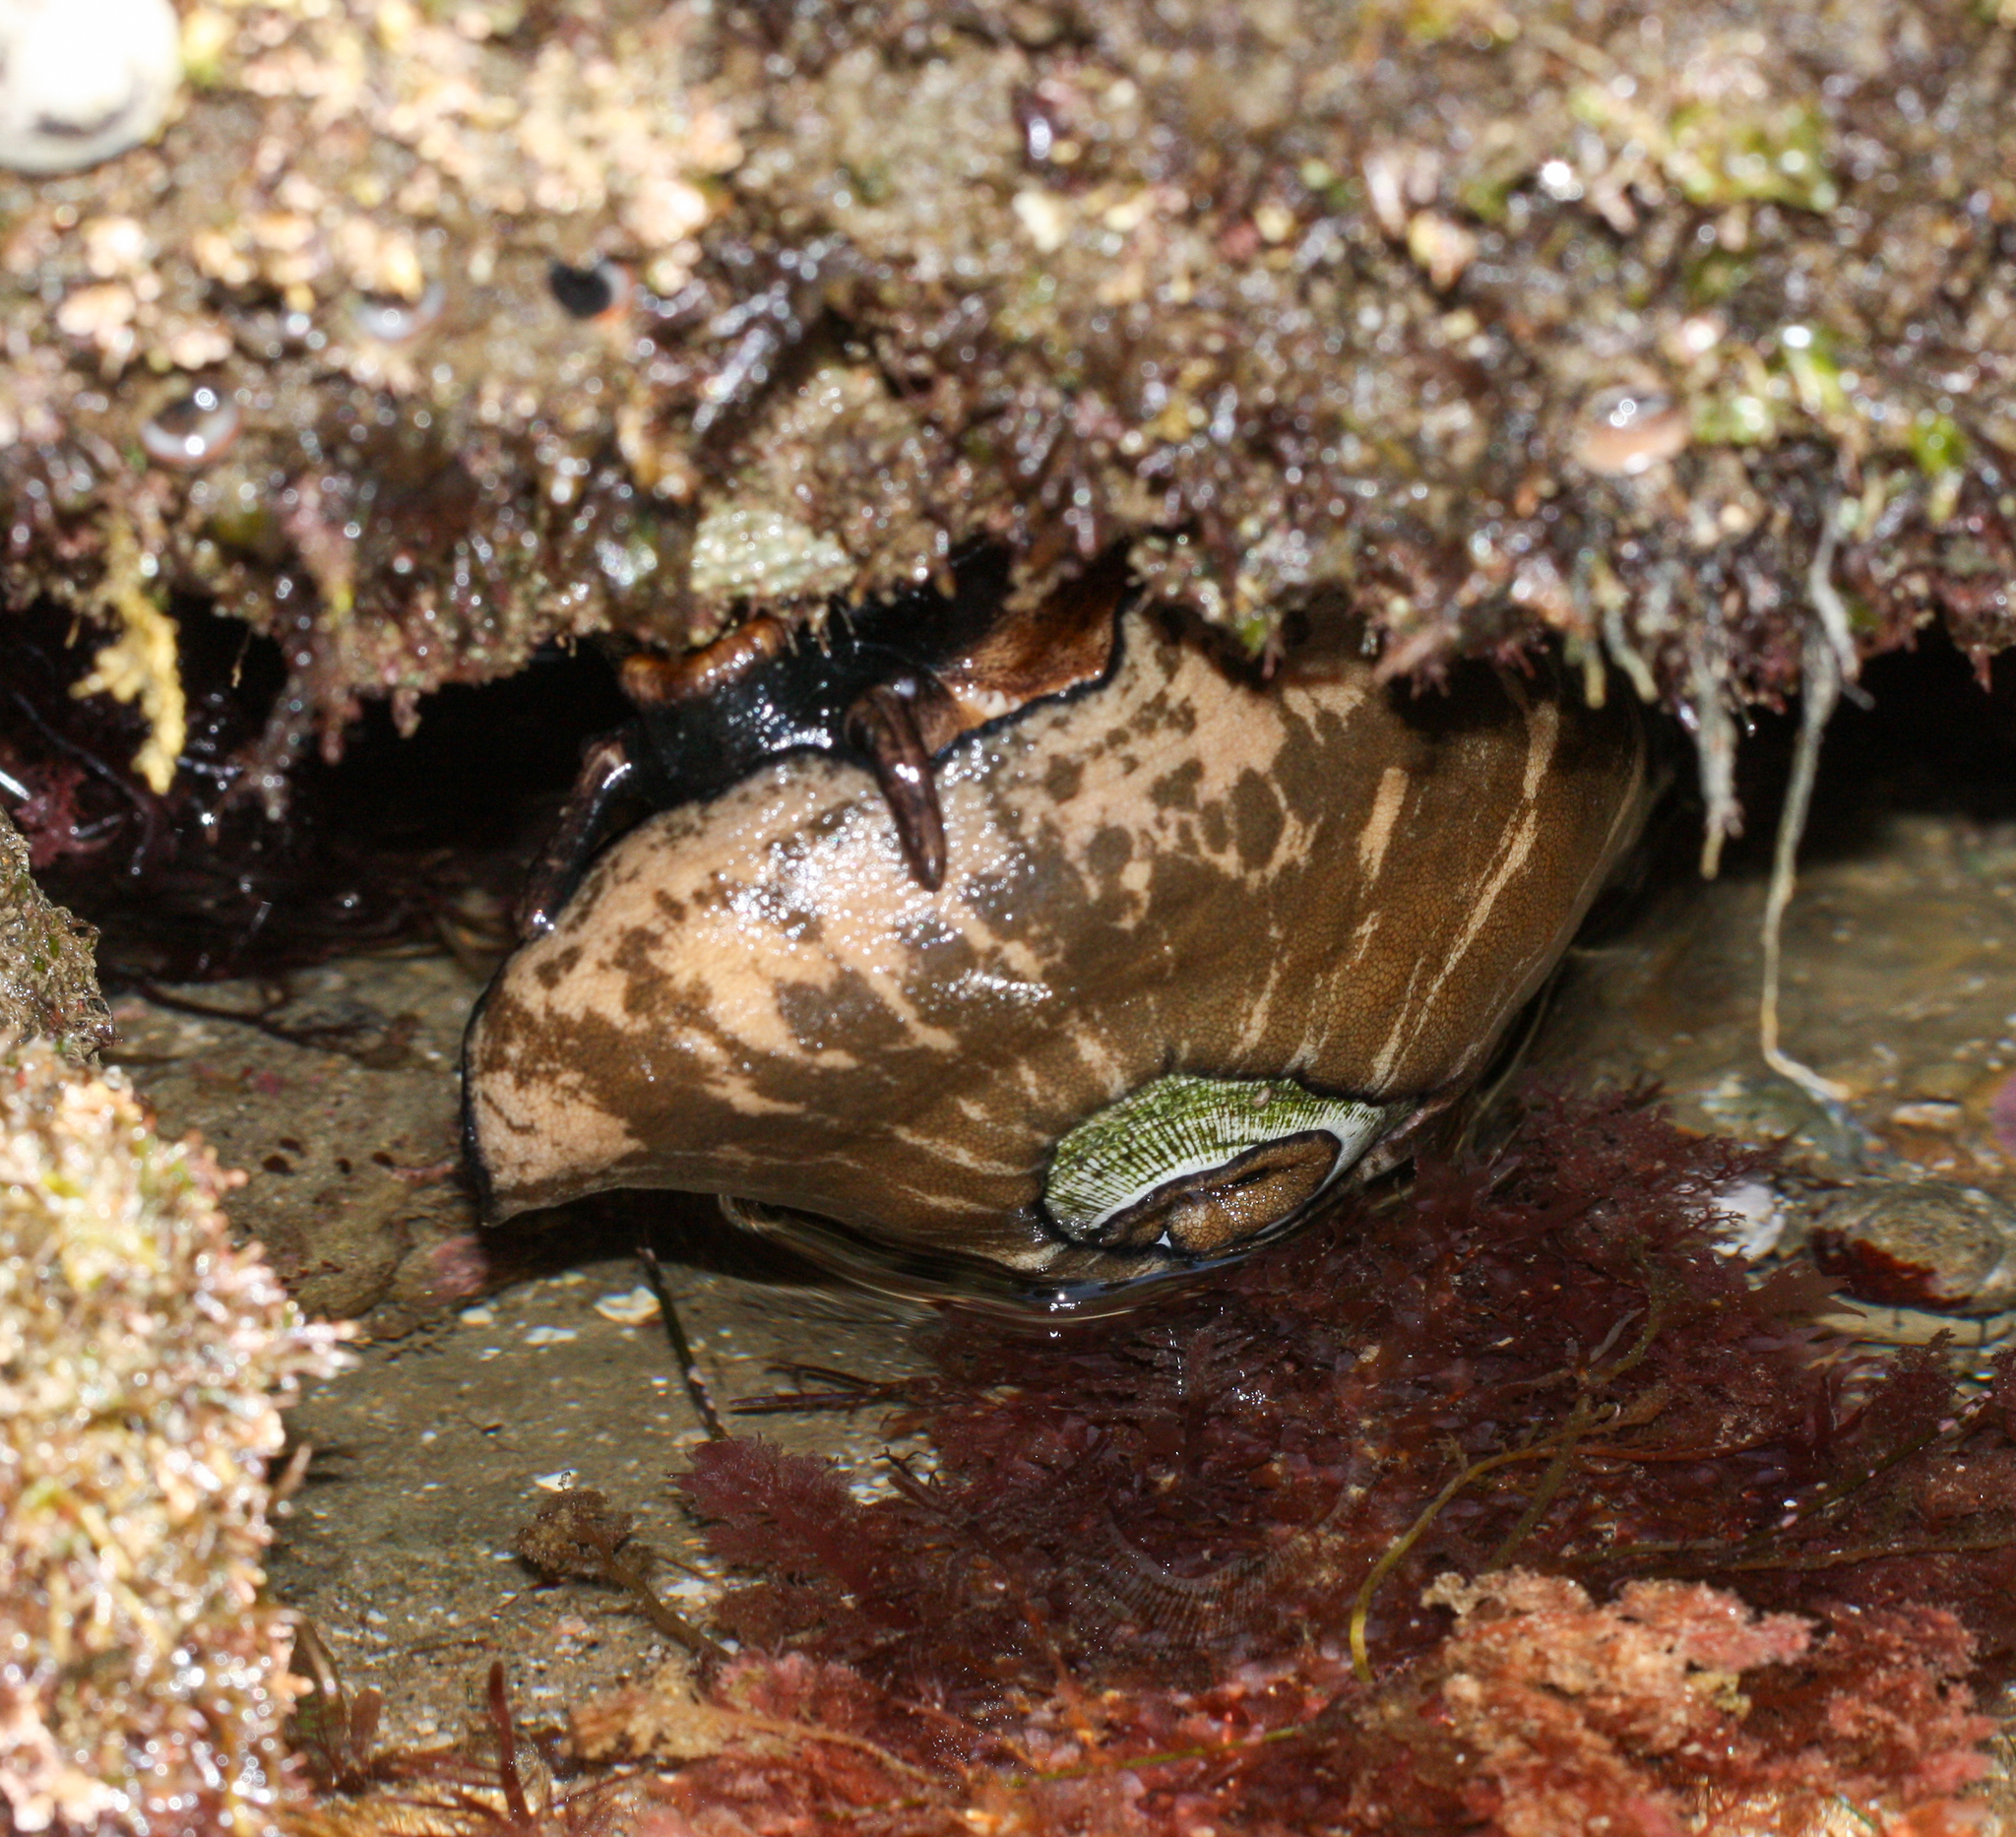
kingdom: Animalia
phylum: Mollusca
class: Gastropoda
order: Lepetellida
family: Fissurellidae
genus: Megathura
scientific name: Megathura crenulata
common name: Giant keyhole limpet
